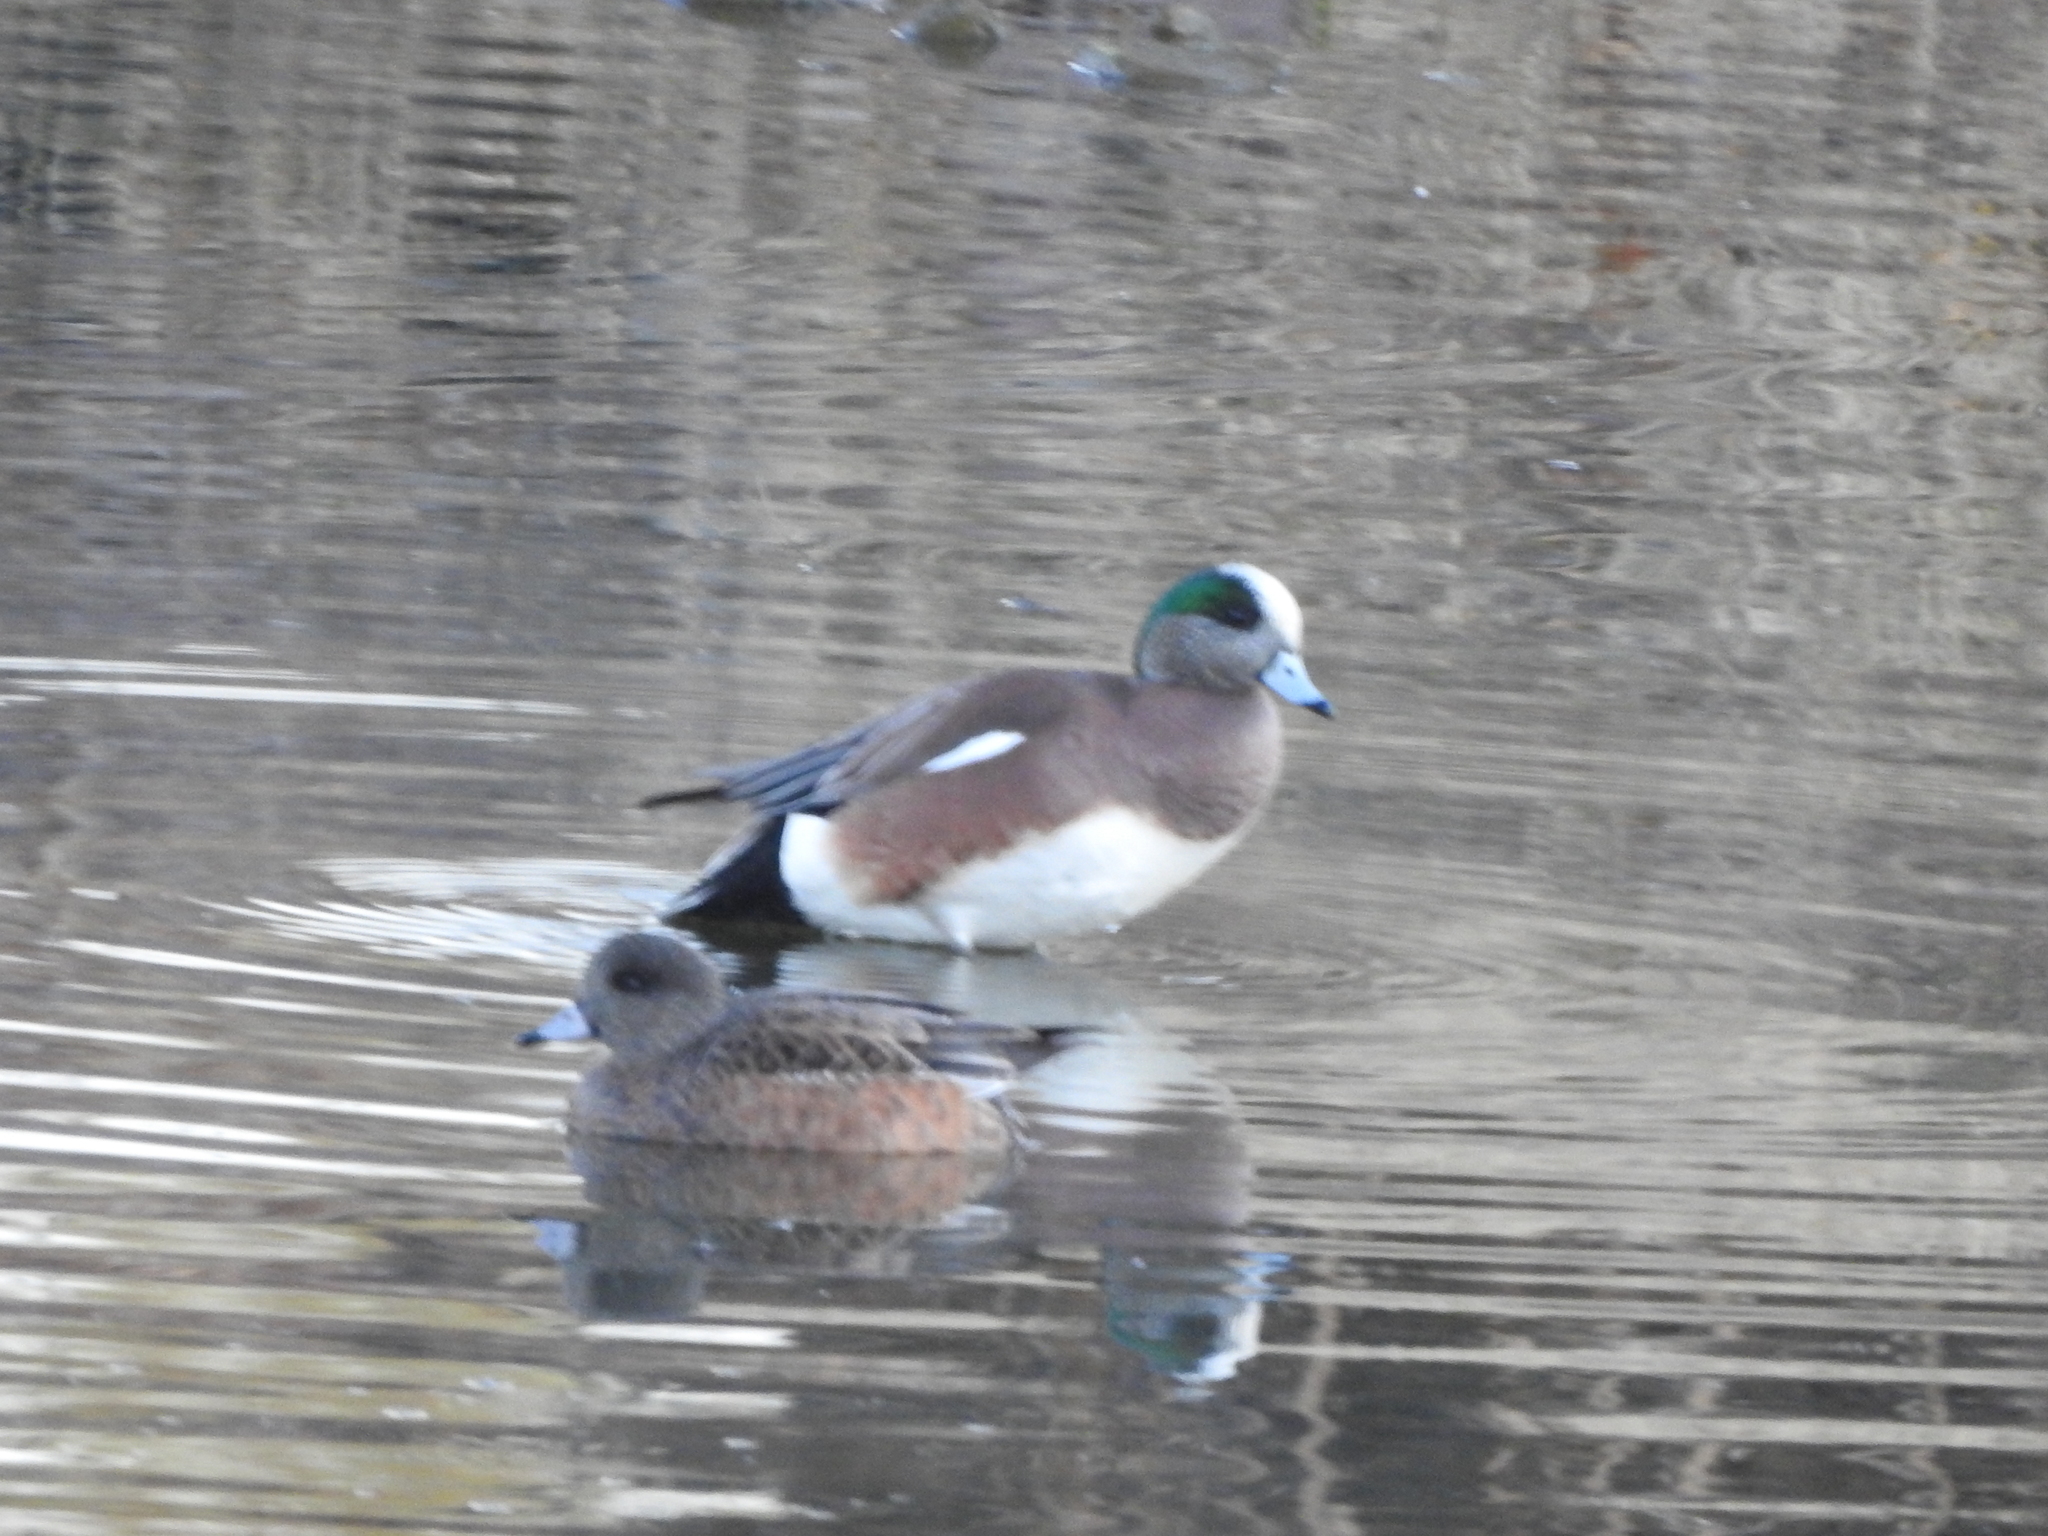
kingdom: Animalia
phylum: Chordata
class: Aves
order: Anseriformes
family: Anatidae
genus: Mareca
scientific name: Mareca americana
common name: American wigeon
